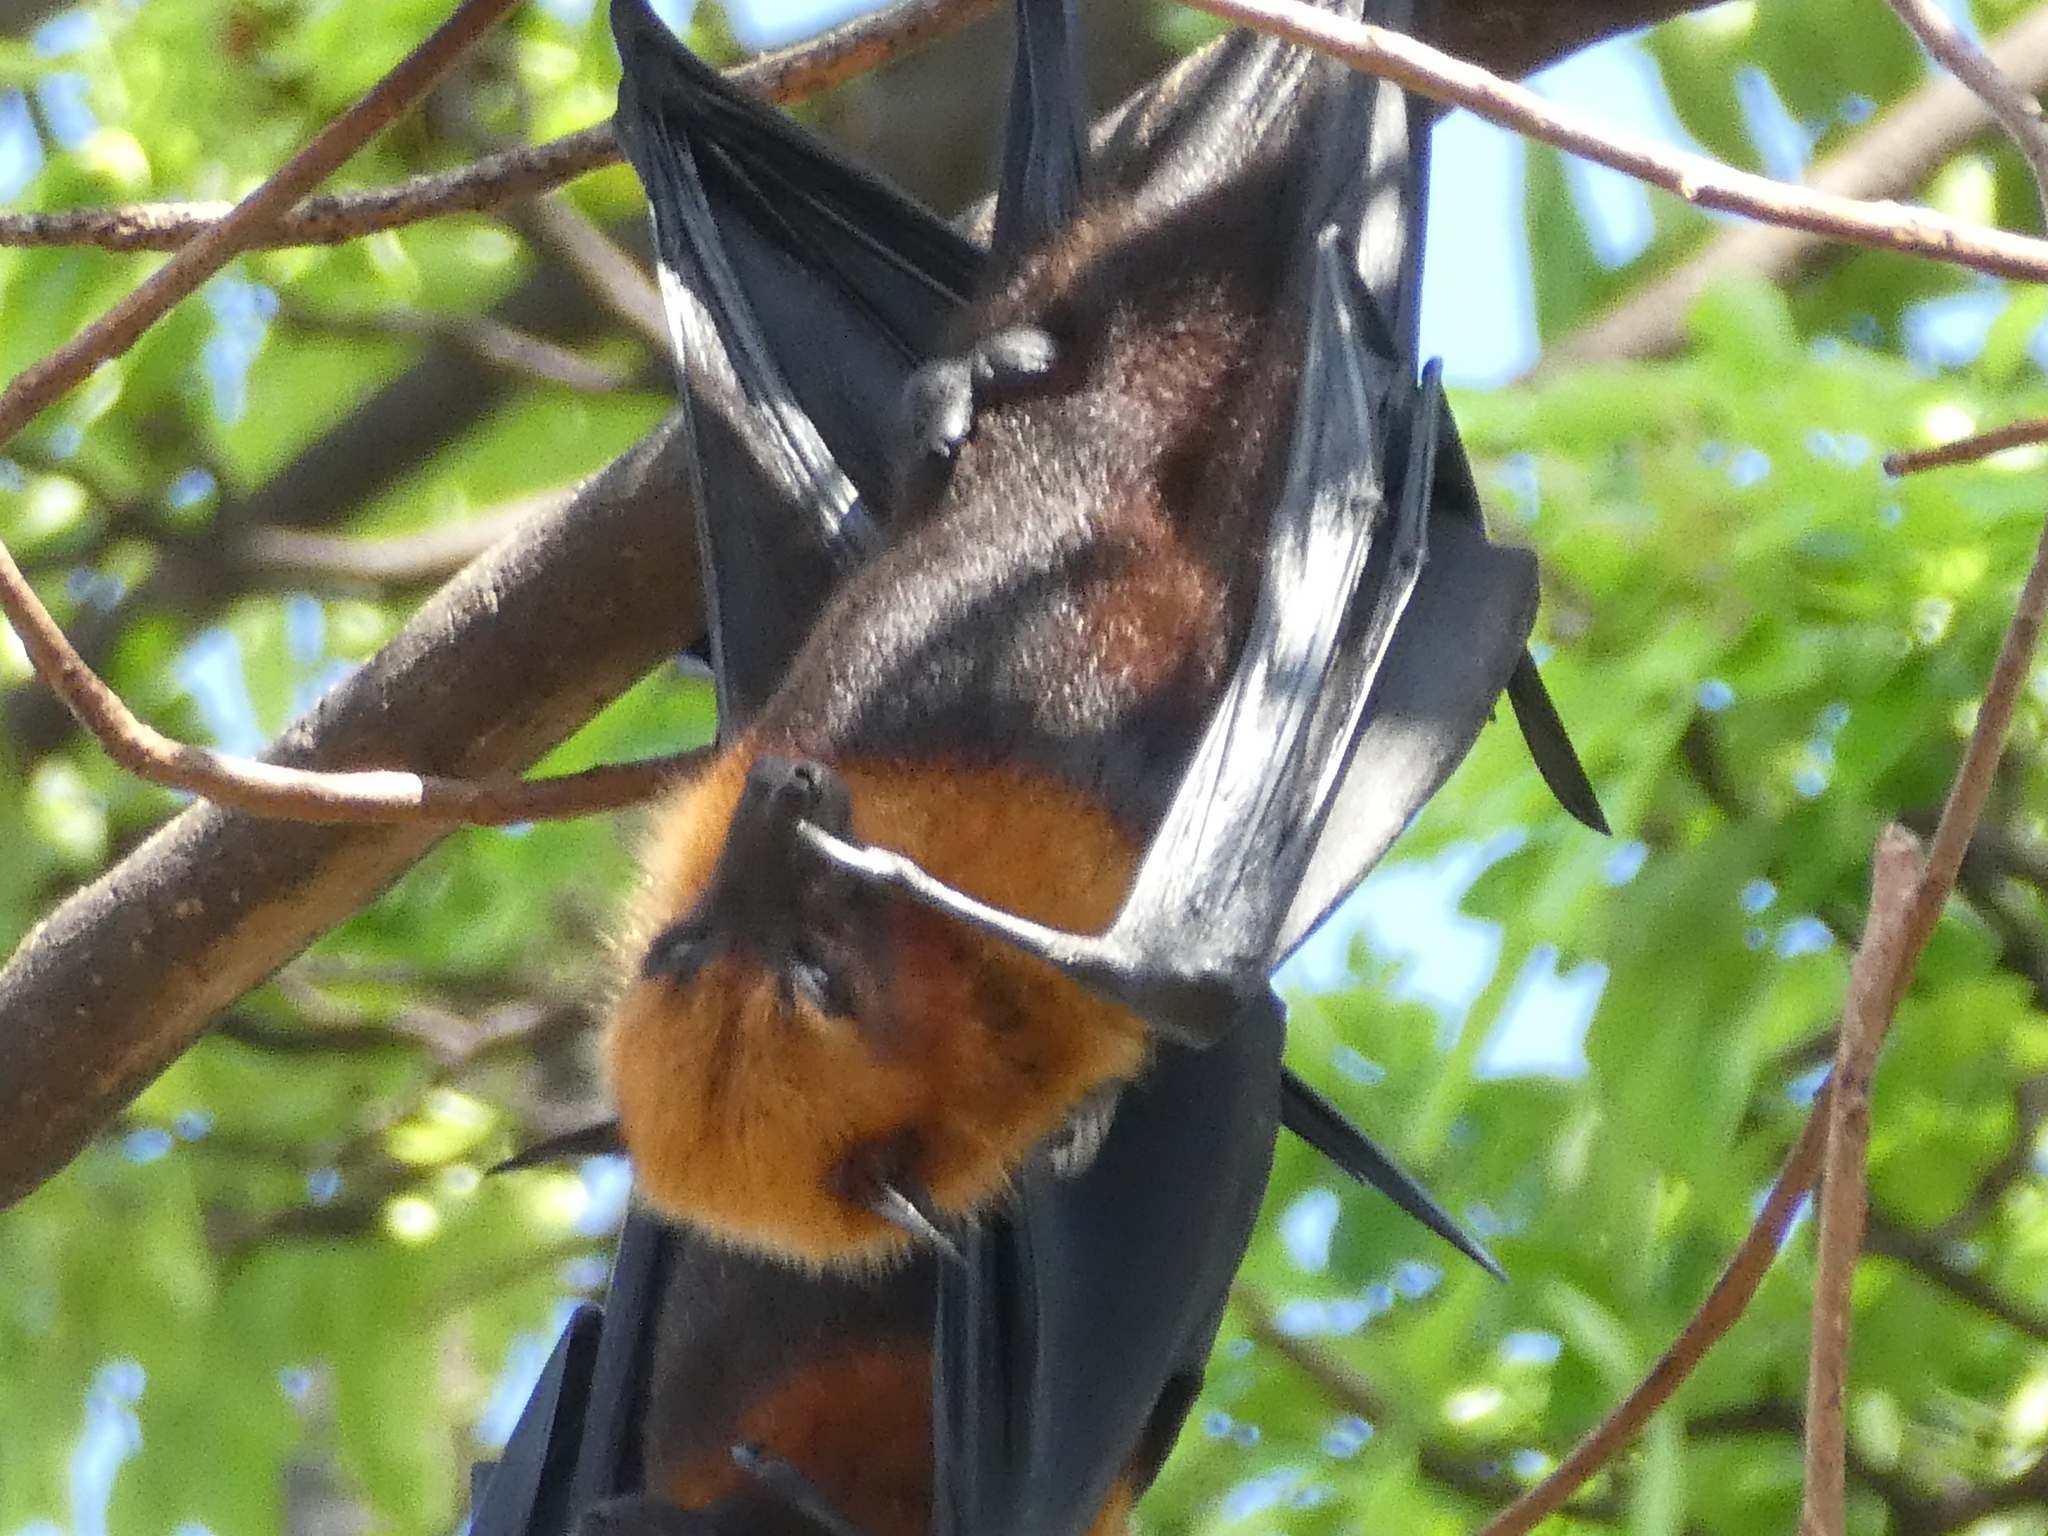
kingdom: Animalia
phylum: Chordata
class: Mammalia
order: Chiroptera
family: Pteropodidae
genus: Pteropus
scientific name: Pteropus lylei
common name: Lyle's flying fox
